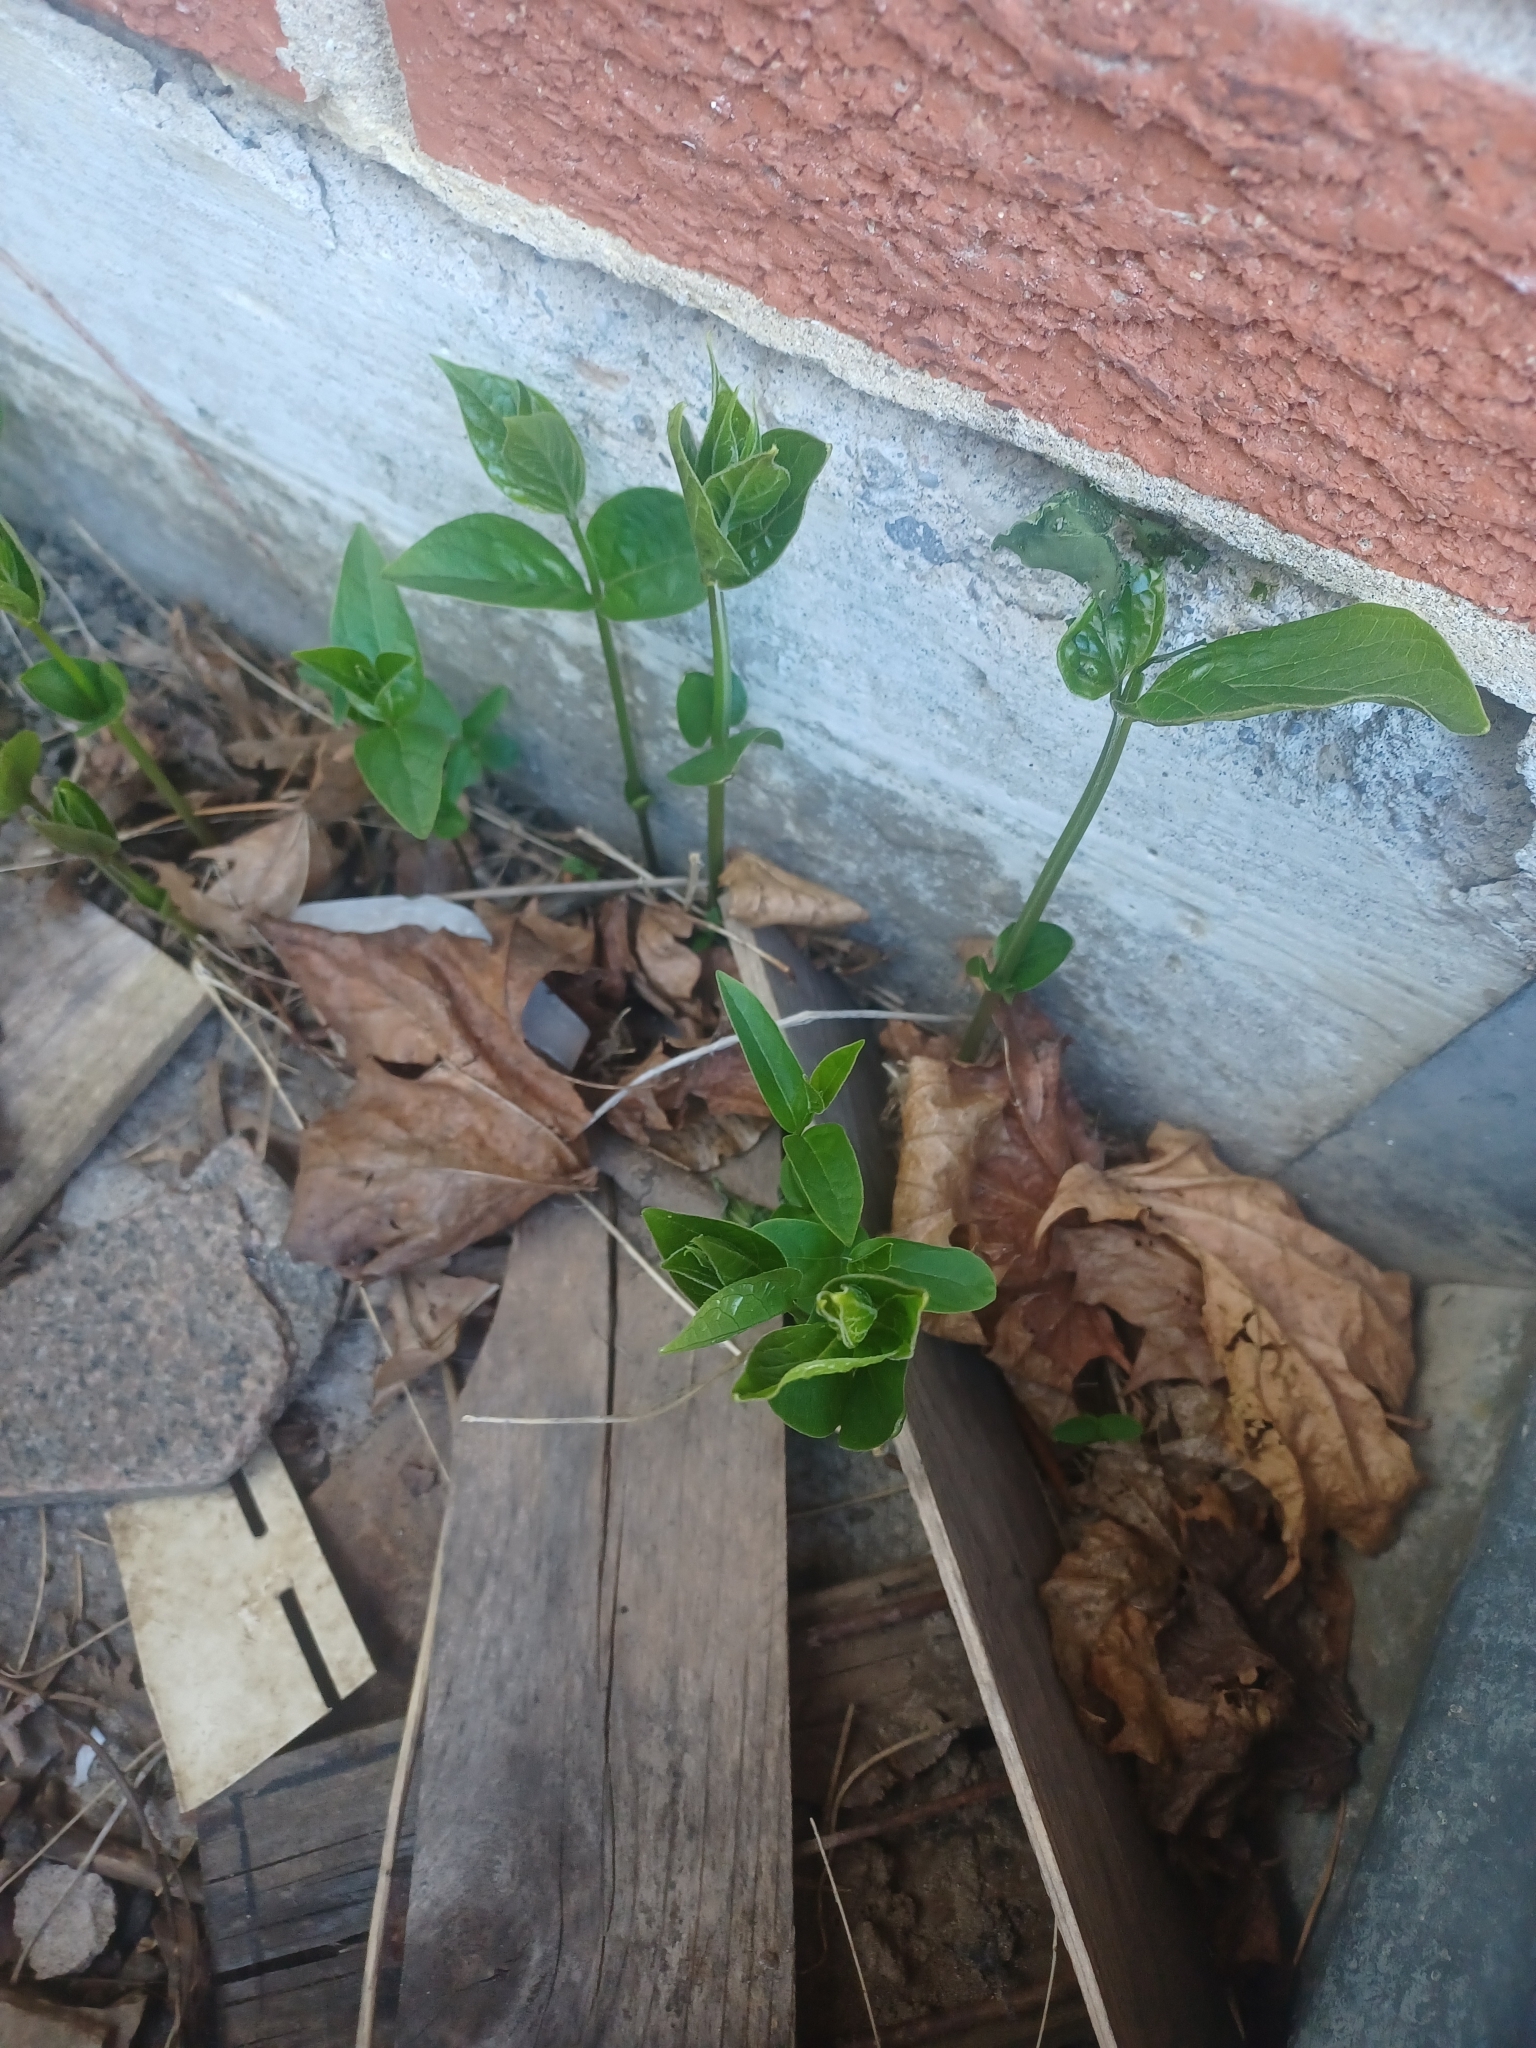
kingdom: Plantae
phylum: Tracheophyta
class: Magnoliopsida
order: Gentianales
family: Apocynaceae
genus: Vincetoxicum
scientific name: Vincetoxicum rossicum
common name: Dog-strangling vine
